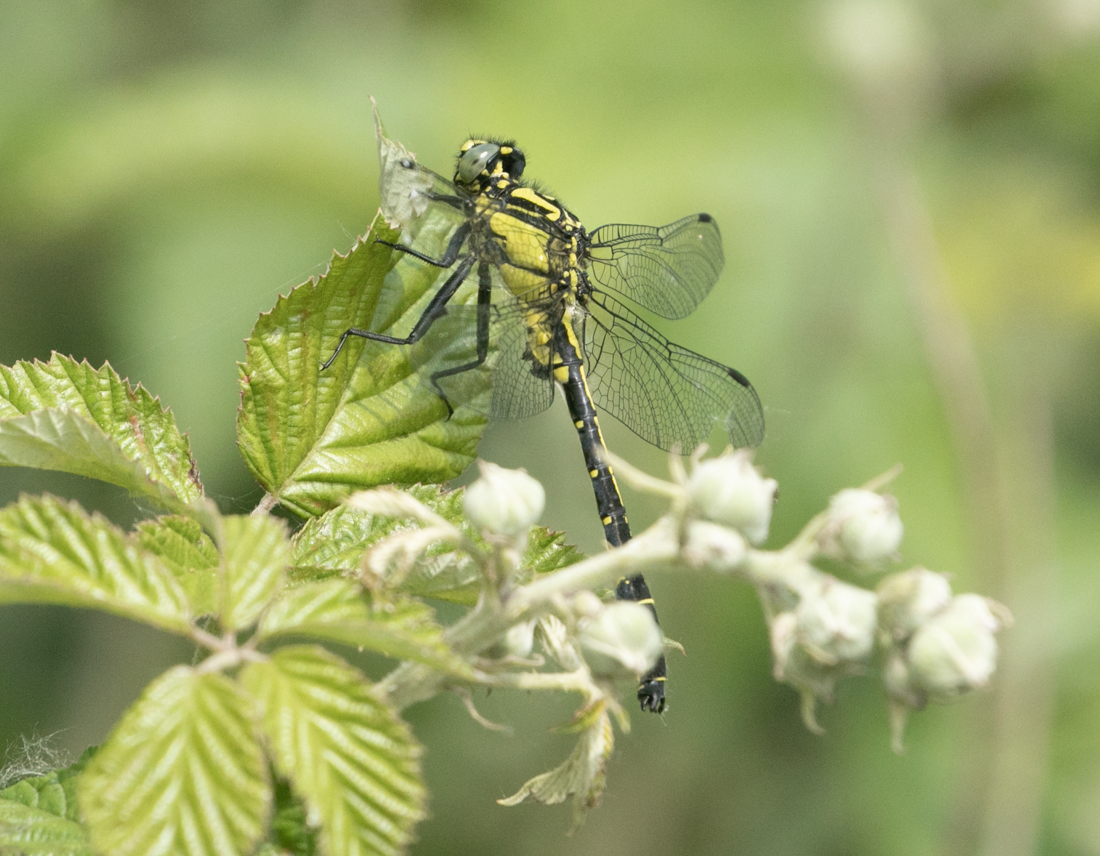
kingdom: Animalia
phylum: Arthropoda
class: Insecta
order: Odonata
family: Gomphidae
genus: Gomphus
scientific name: Gomphus vulgatissimus
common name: Club-tailed dragonfly
